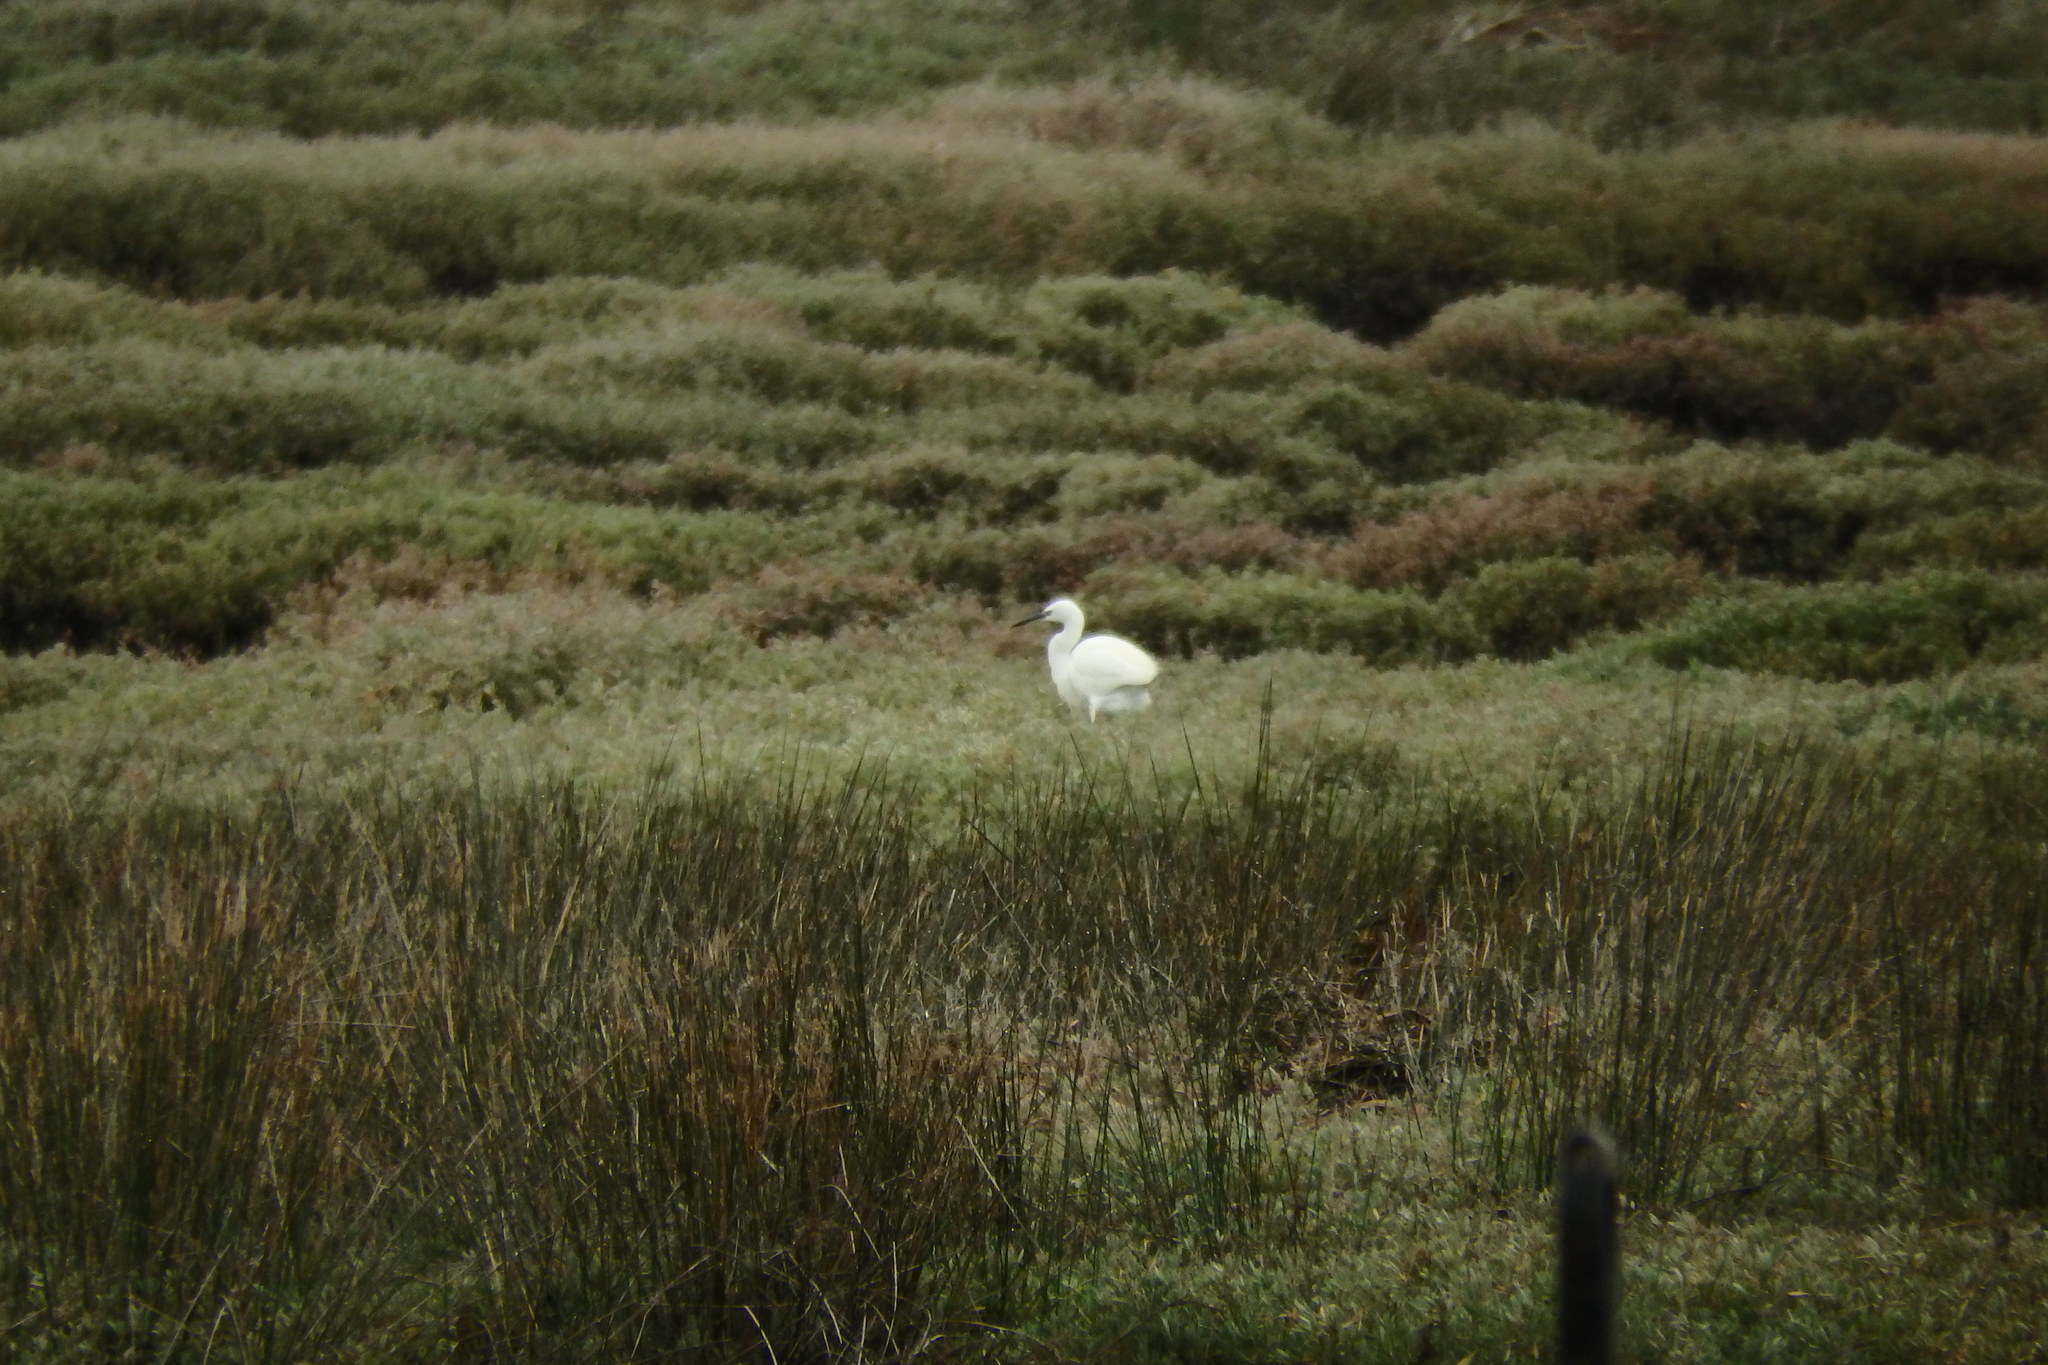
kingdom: Animalia
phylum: Chordata
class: Aves
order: Pelecaniformes
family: Ardeidae
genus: Egretta
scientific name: Egretta garzetta
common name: Little egret
